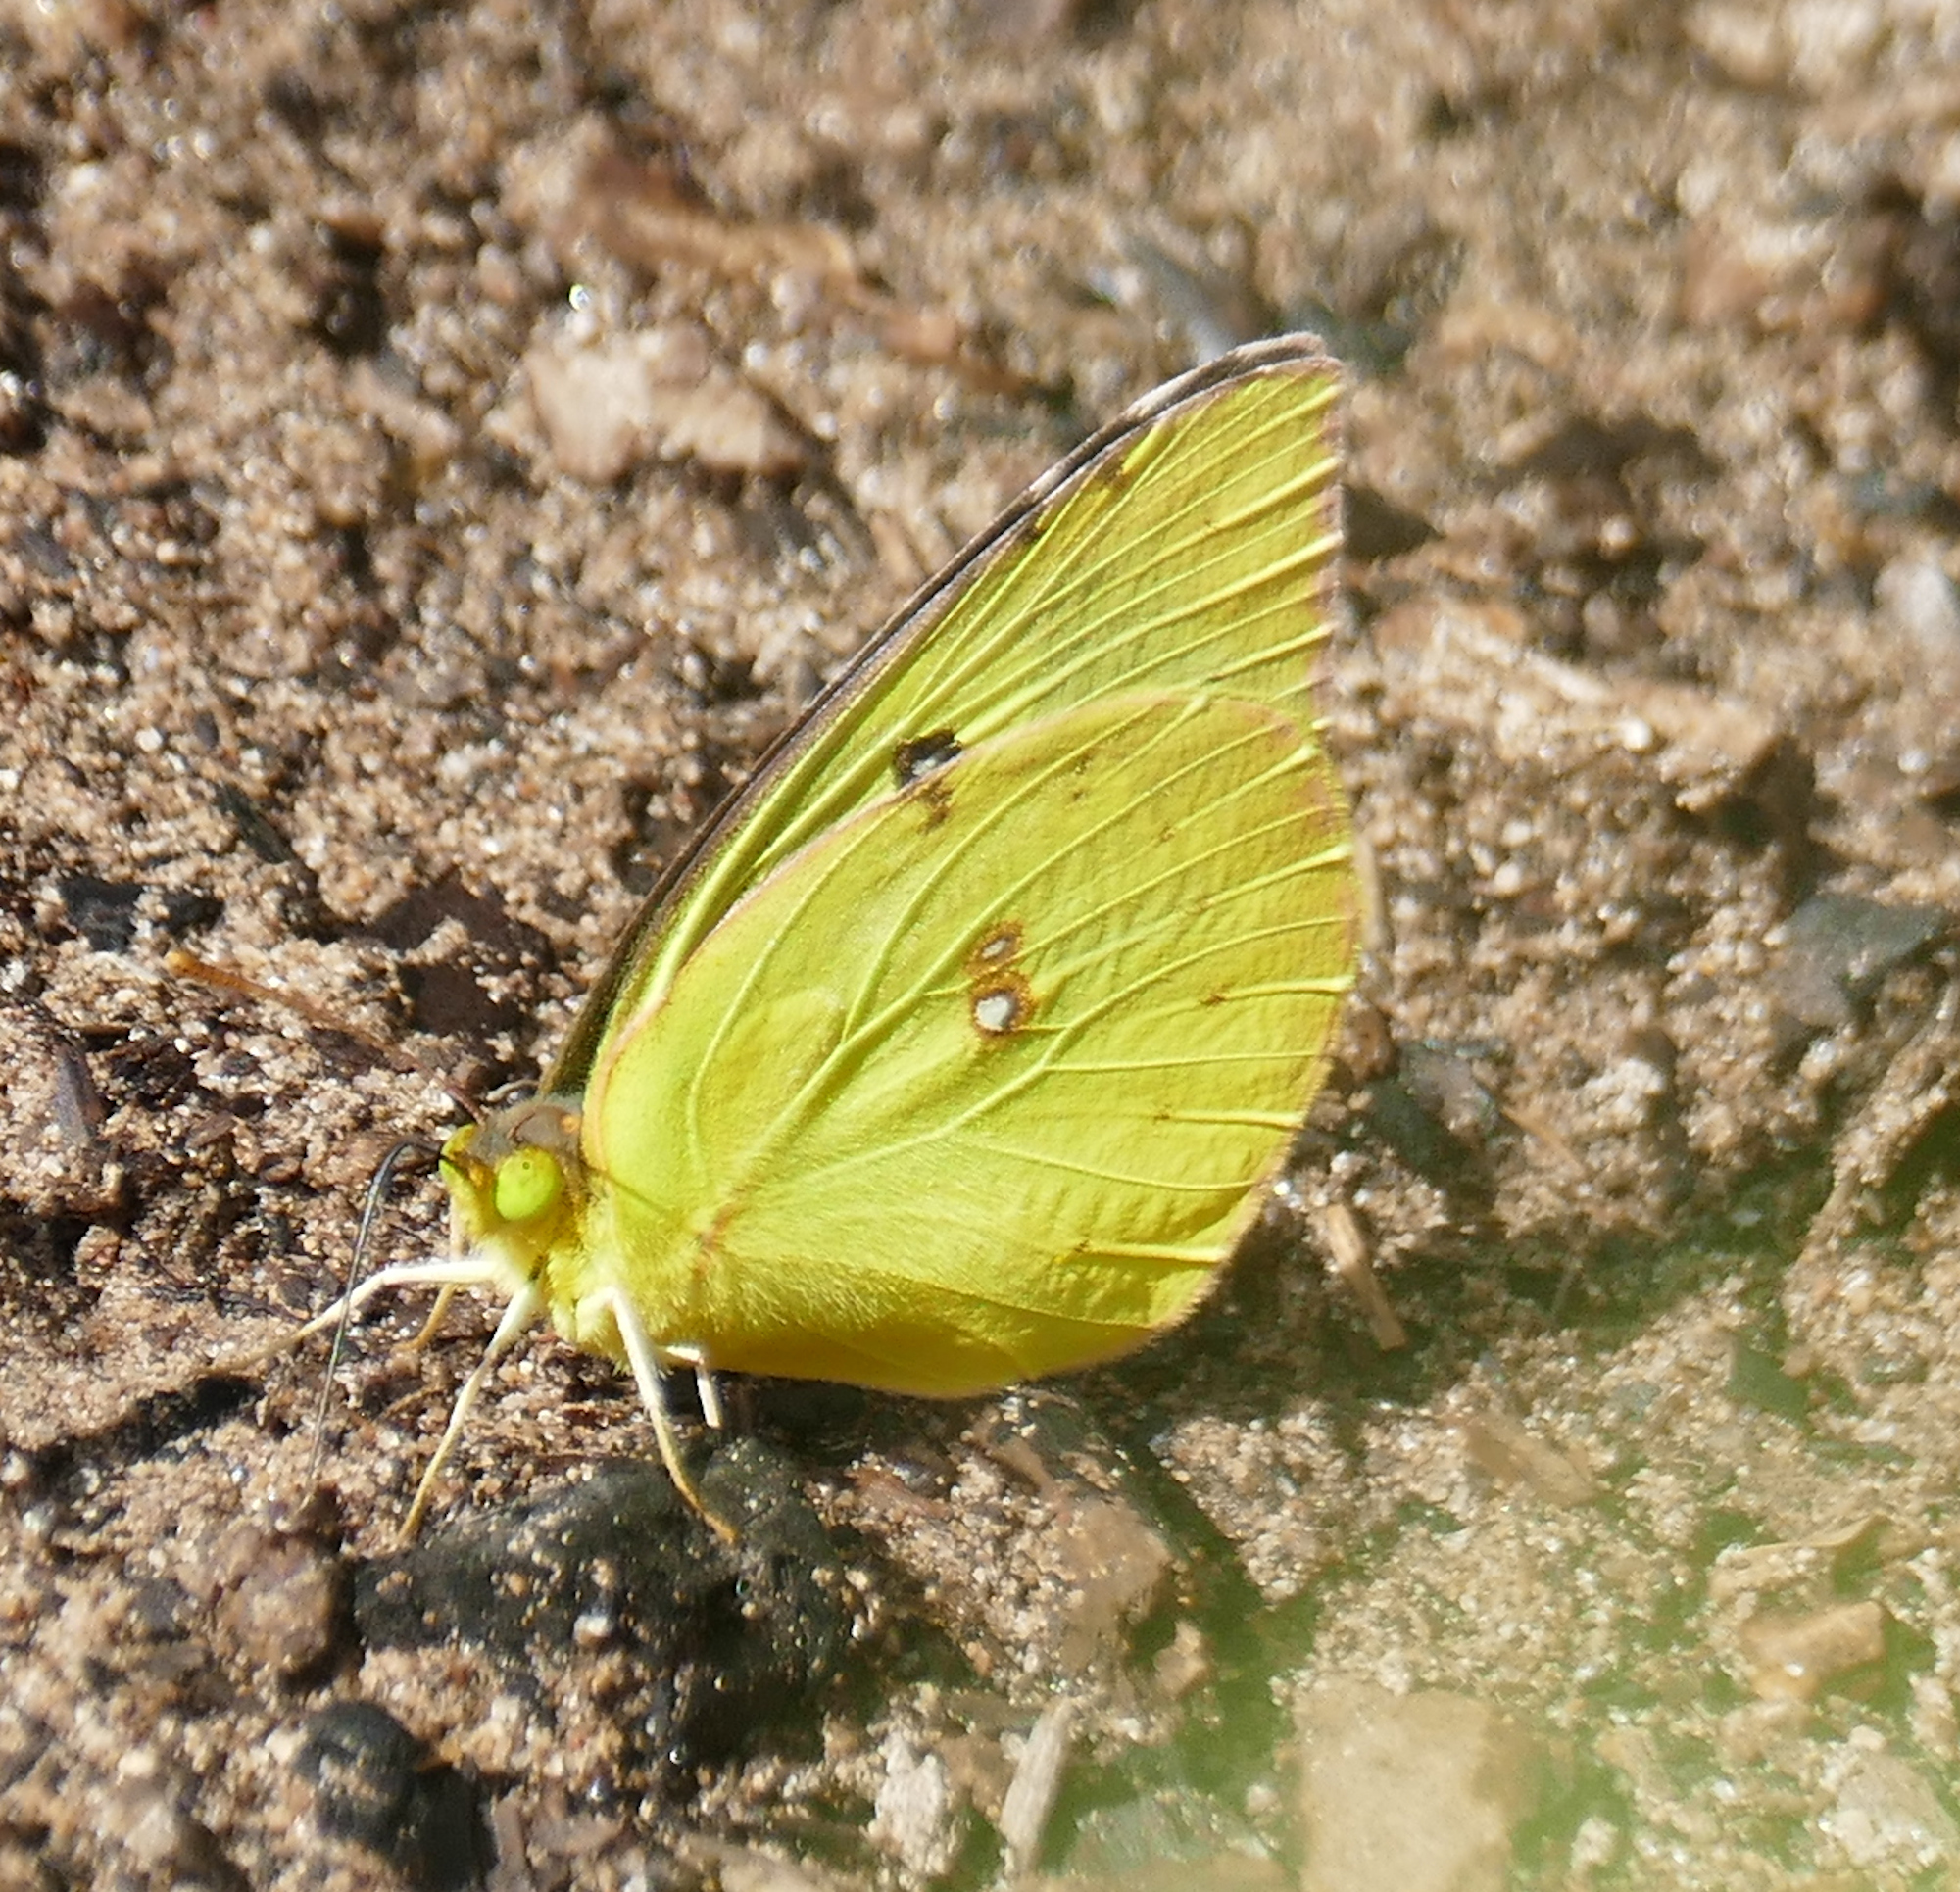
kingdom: Animalia
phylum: Arthropoda
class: Insecta
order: Lepidoptera
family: Pieridae
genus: Zerene
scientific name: Zerene cesonia
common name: Southern dogface
